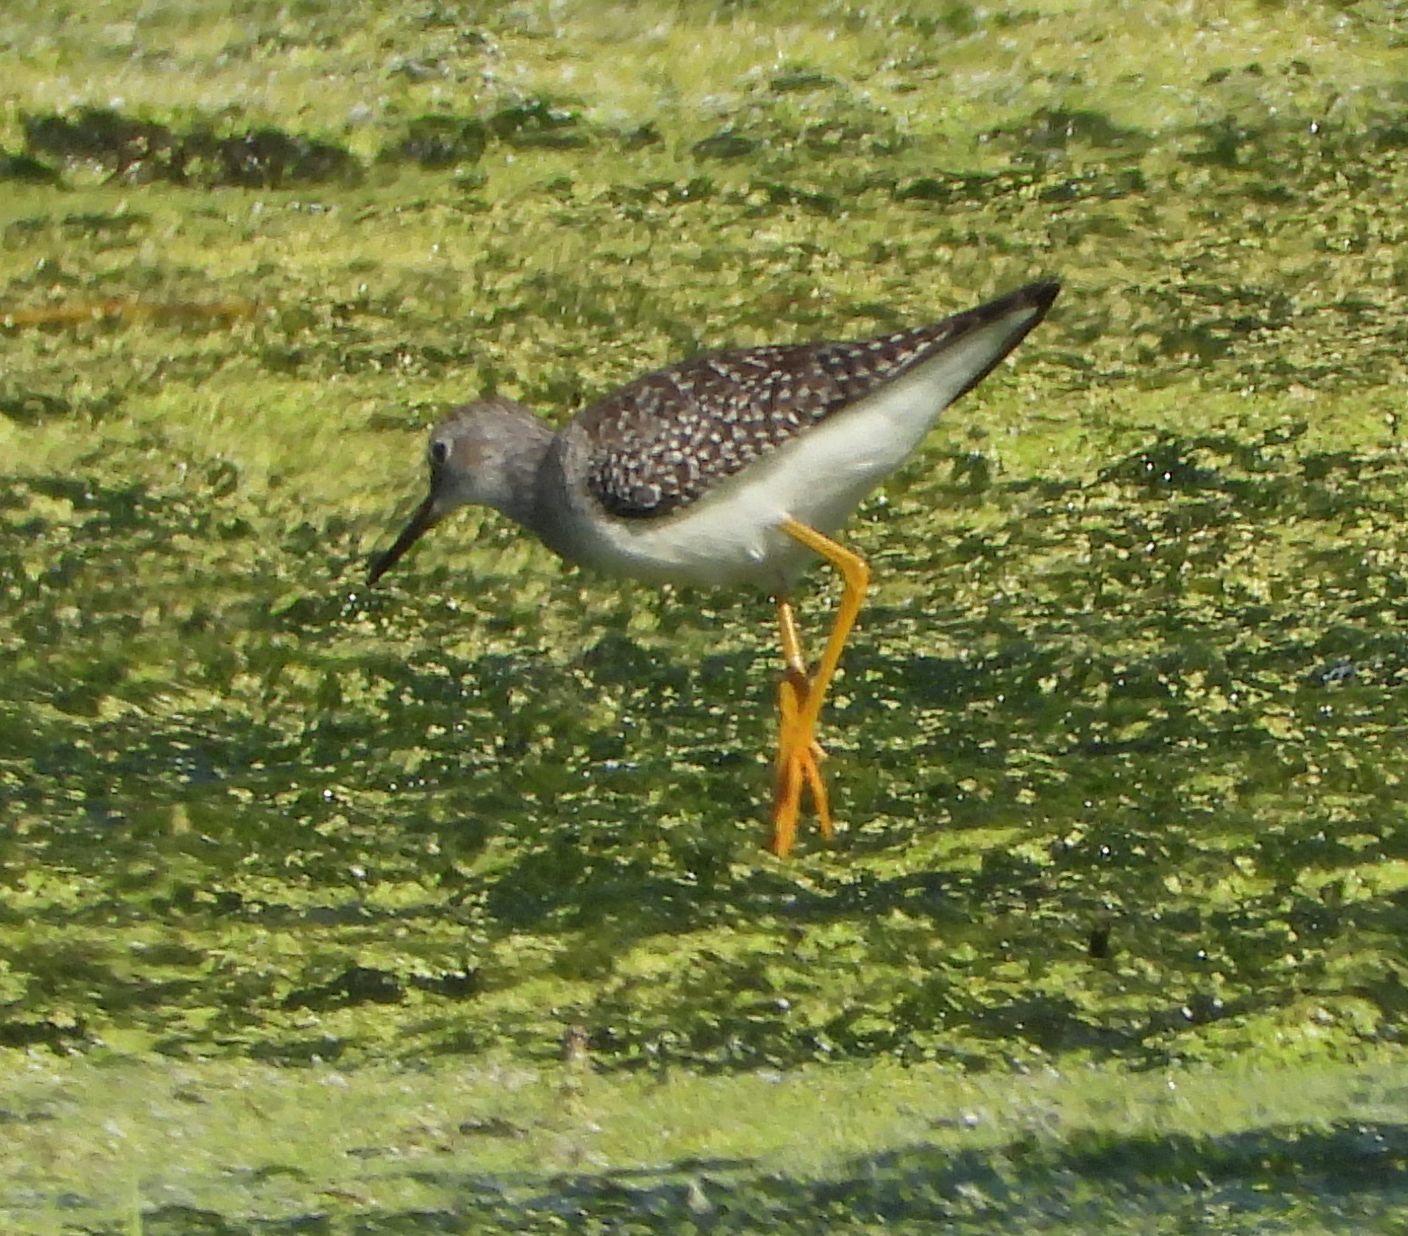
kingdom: Animalia
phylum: Chordata
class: Aves
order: Charadriiformes
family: Scolopacidae
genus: Tringa
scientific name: Tringa flavipes
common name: Lesser yellowlegs
